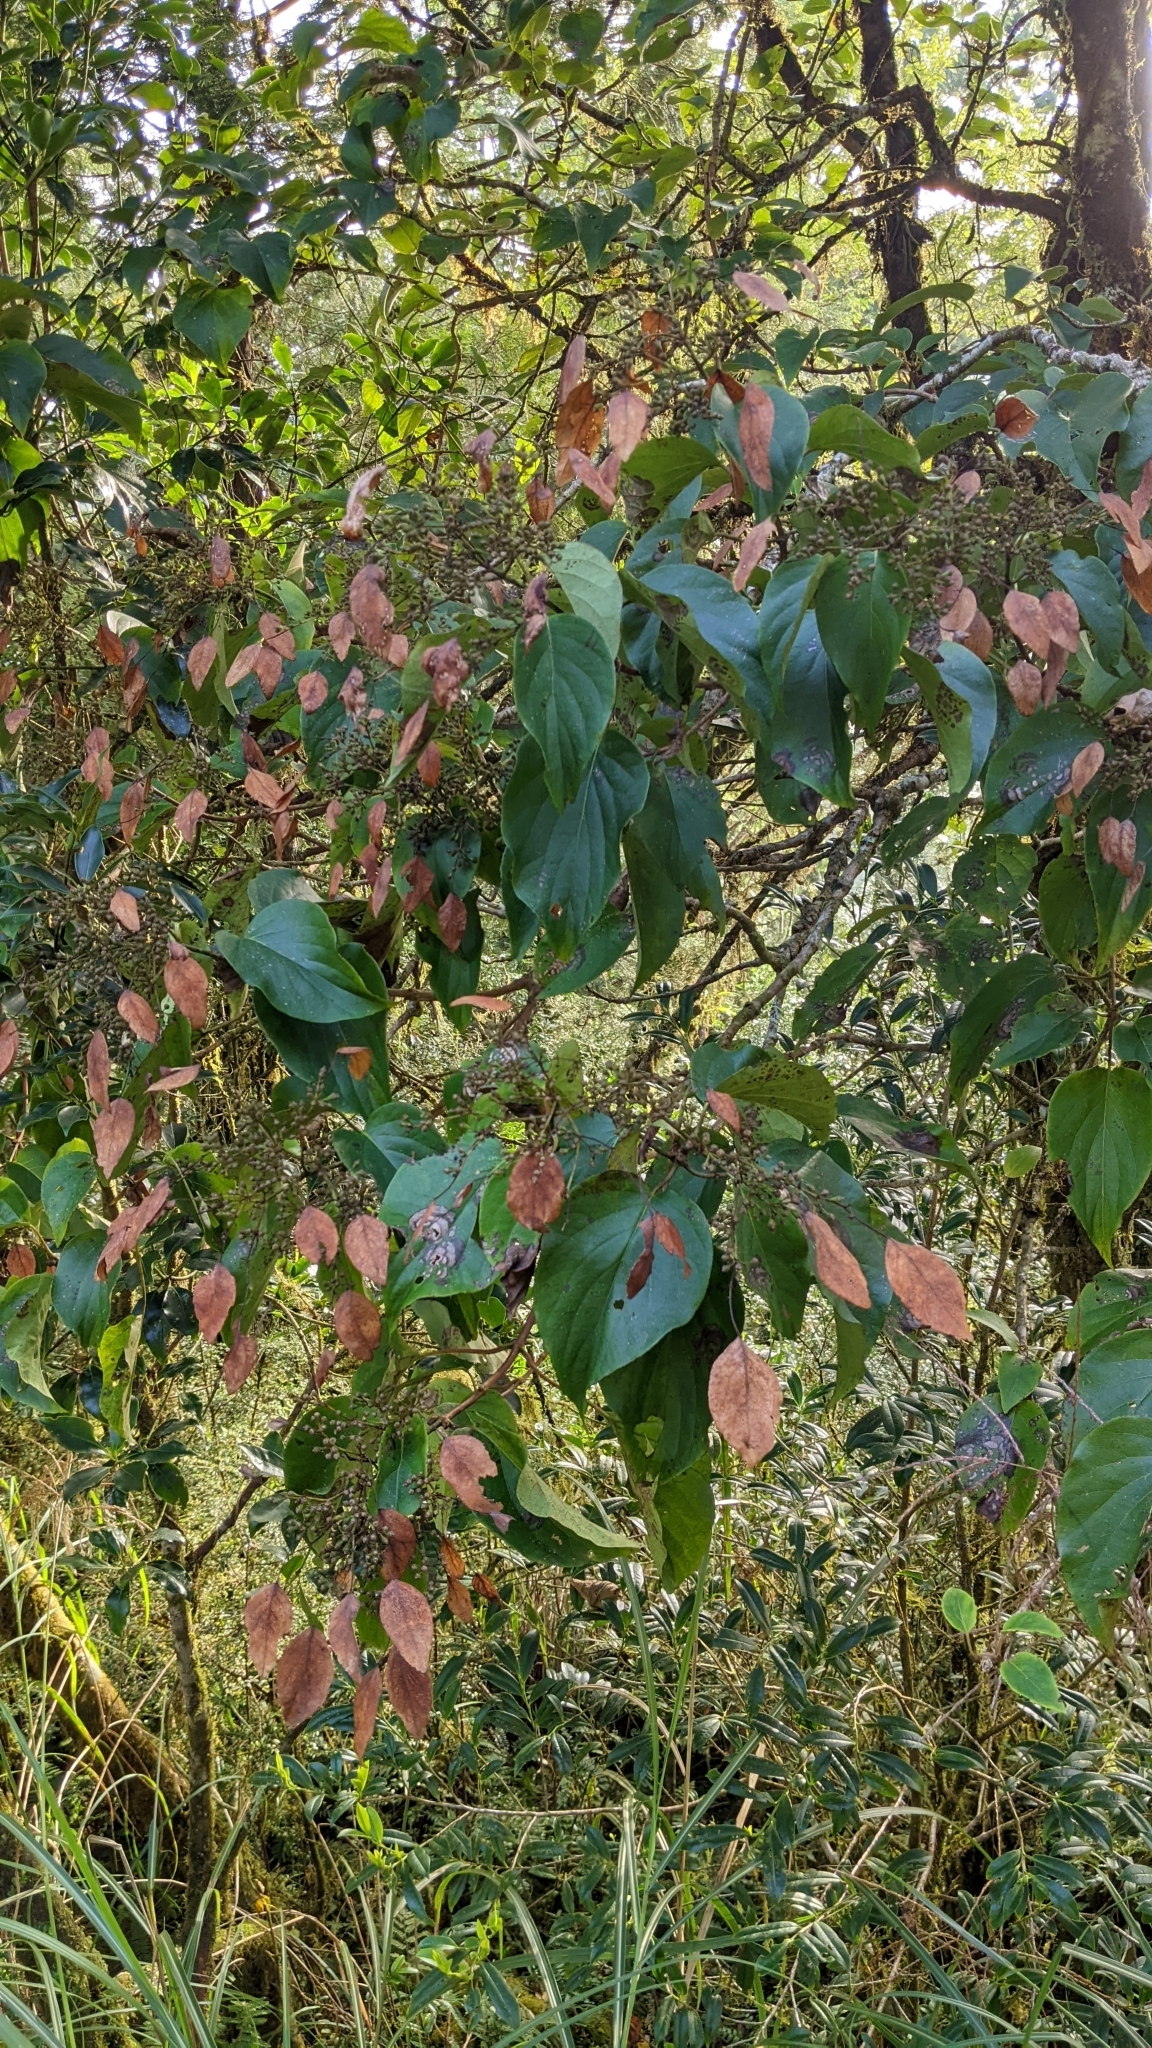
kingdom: Plantae
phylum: Tracheophyta
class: Magnoliopsida
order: Cornales
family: Hydrangeaceae
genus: Hydrangea
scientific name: Hydrangea fauriei
